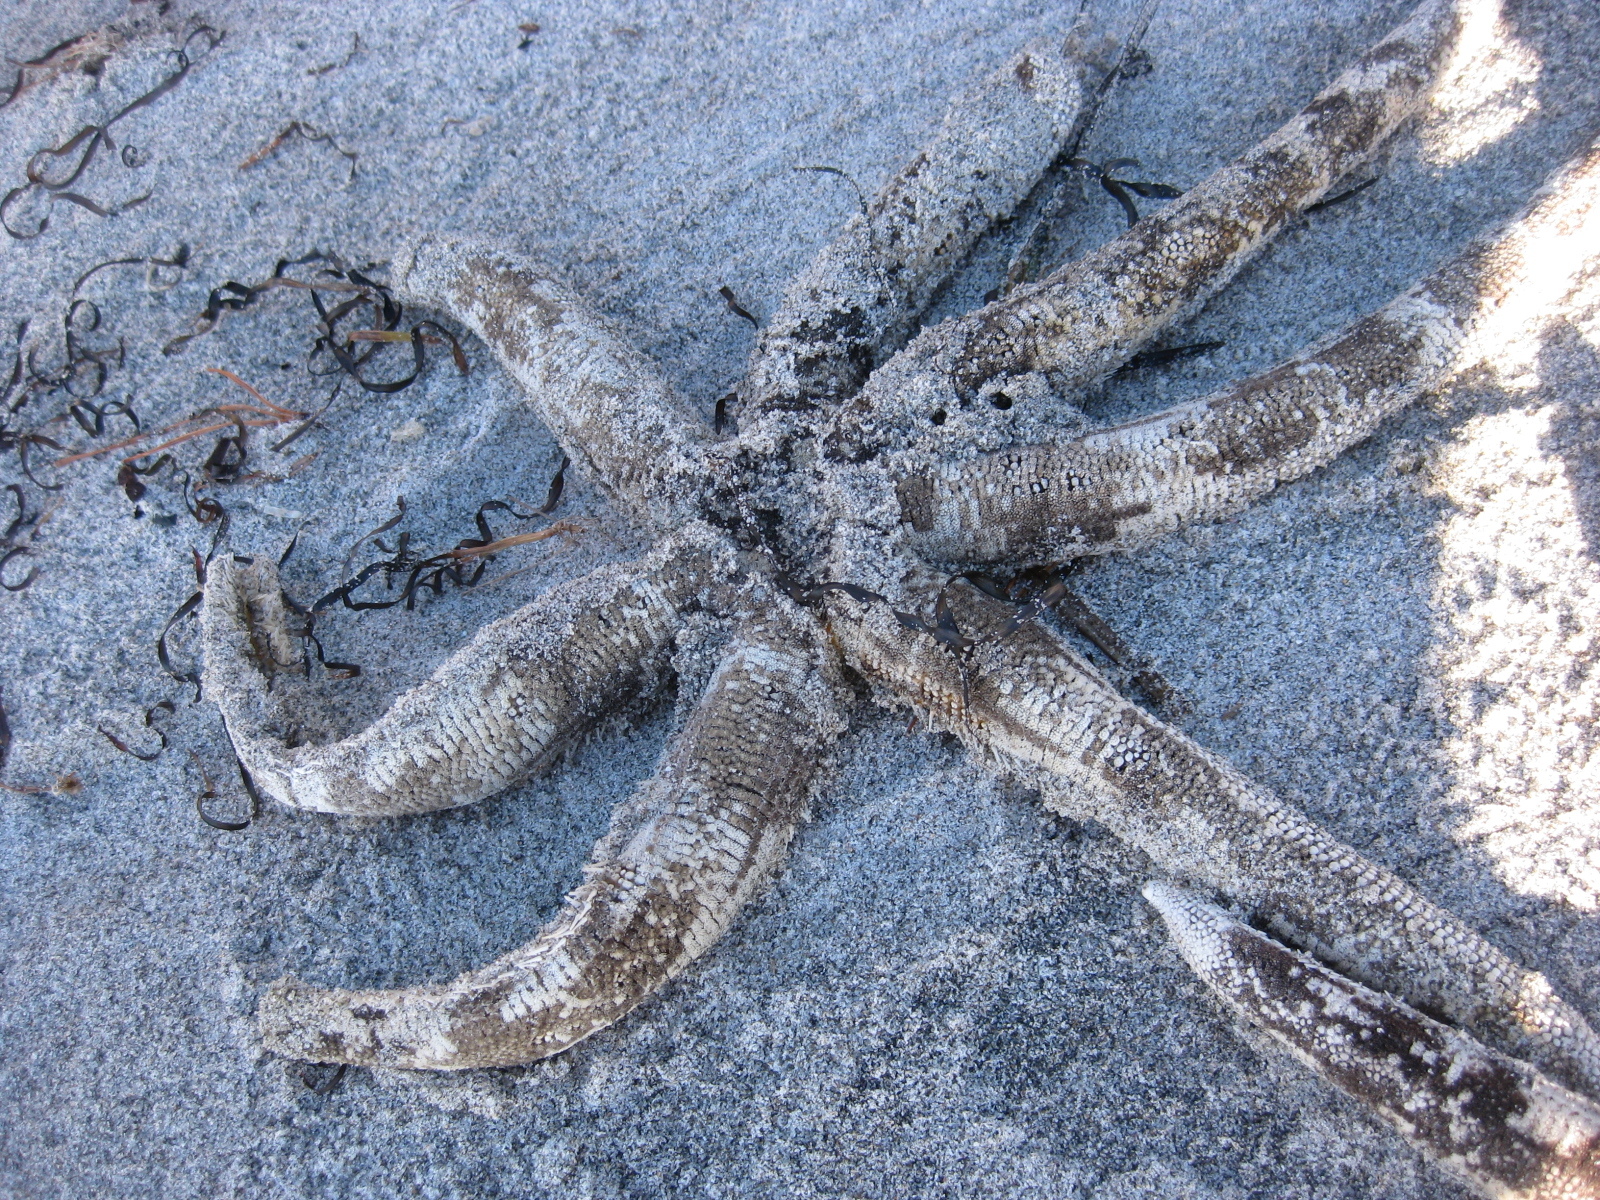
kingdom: Animalia
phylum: Echinodermata
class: Asteroidea
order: Paxillosida
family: Luidiidae
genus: Luidia
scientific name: Luidia australiae
